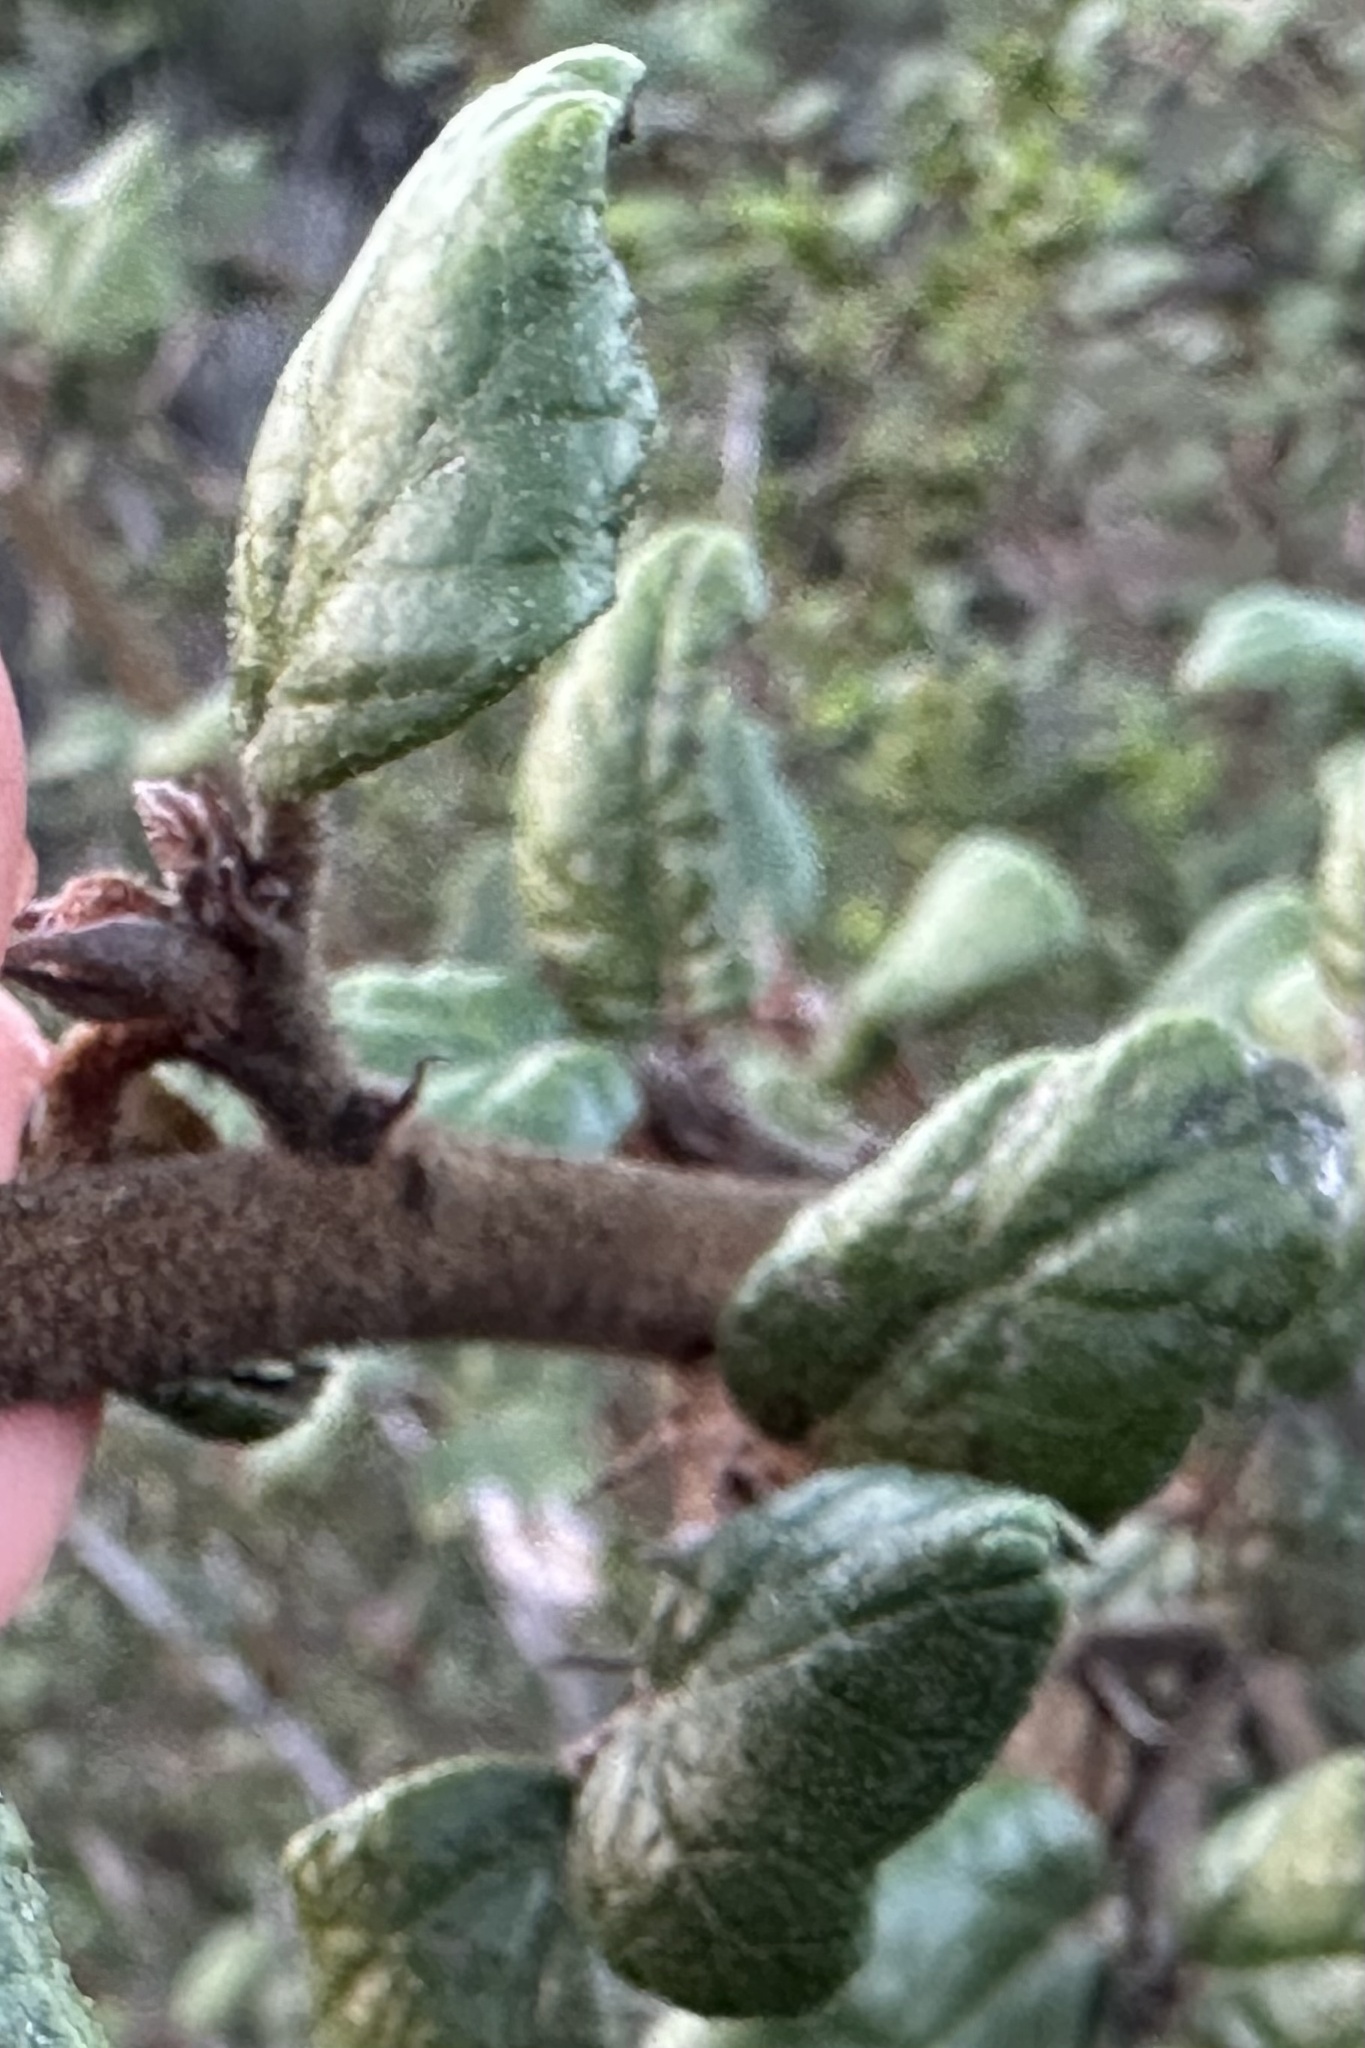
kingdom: Plantae
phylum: Tracheophyta
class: Magnoliopsida
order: Malvales
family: Malvaceae
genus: Fremontodendron
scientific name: Fremontodendron californicum
